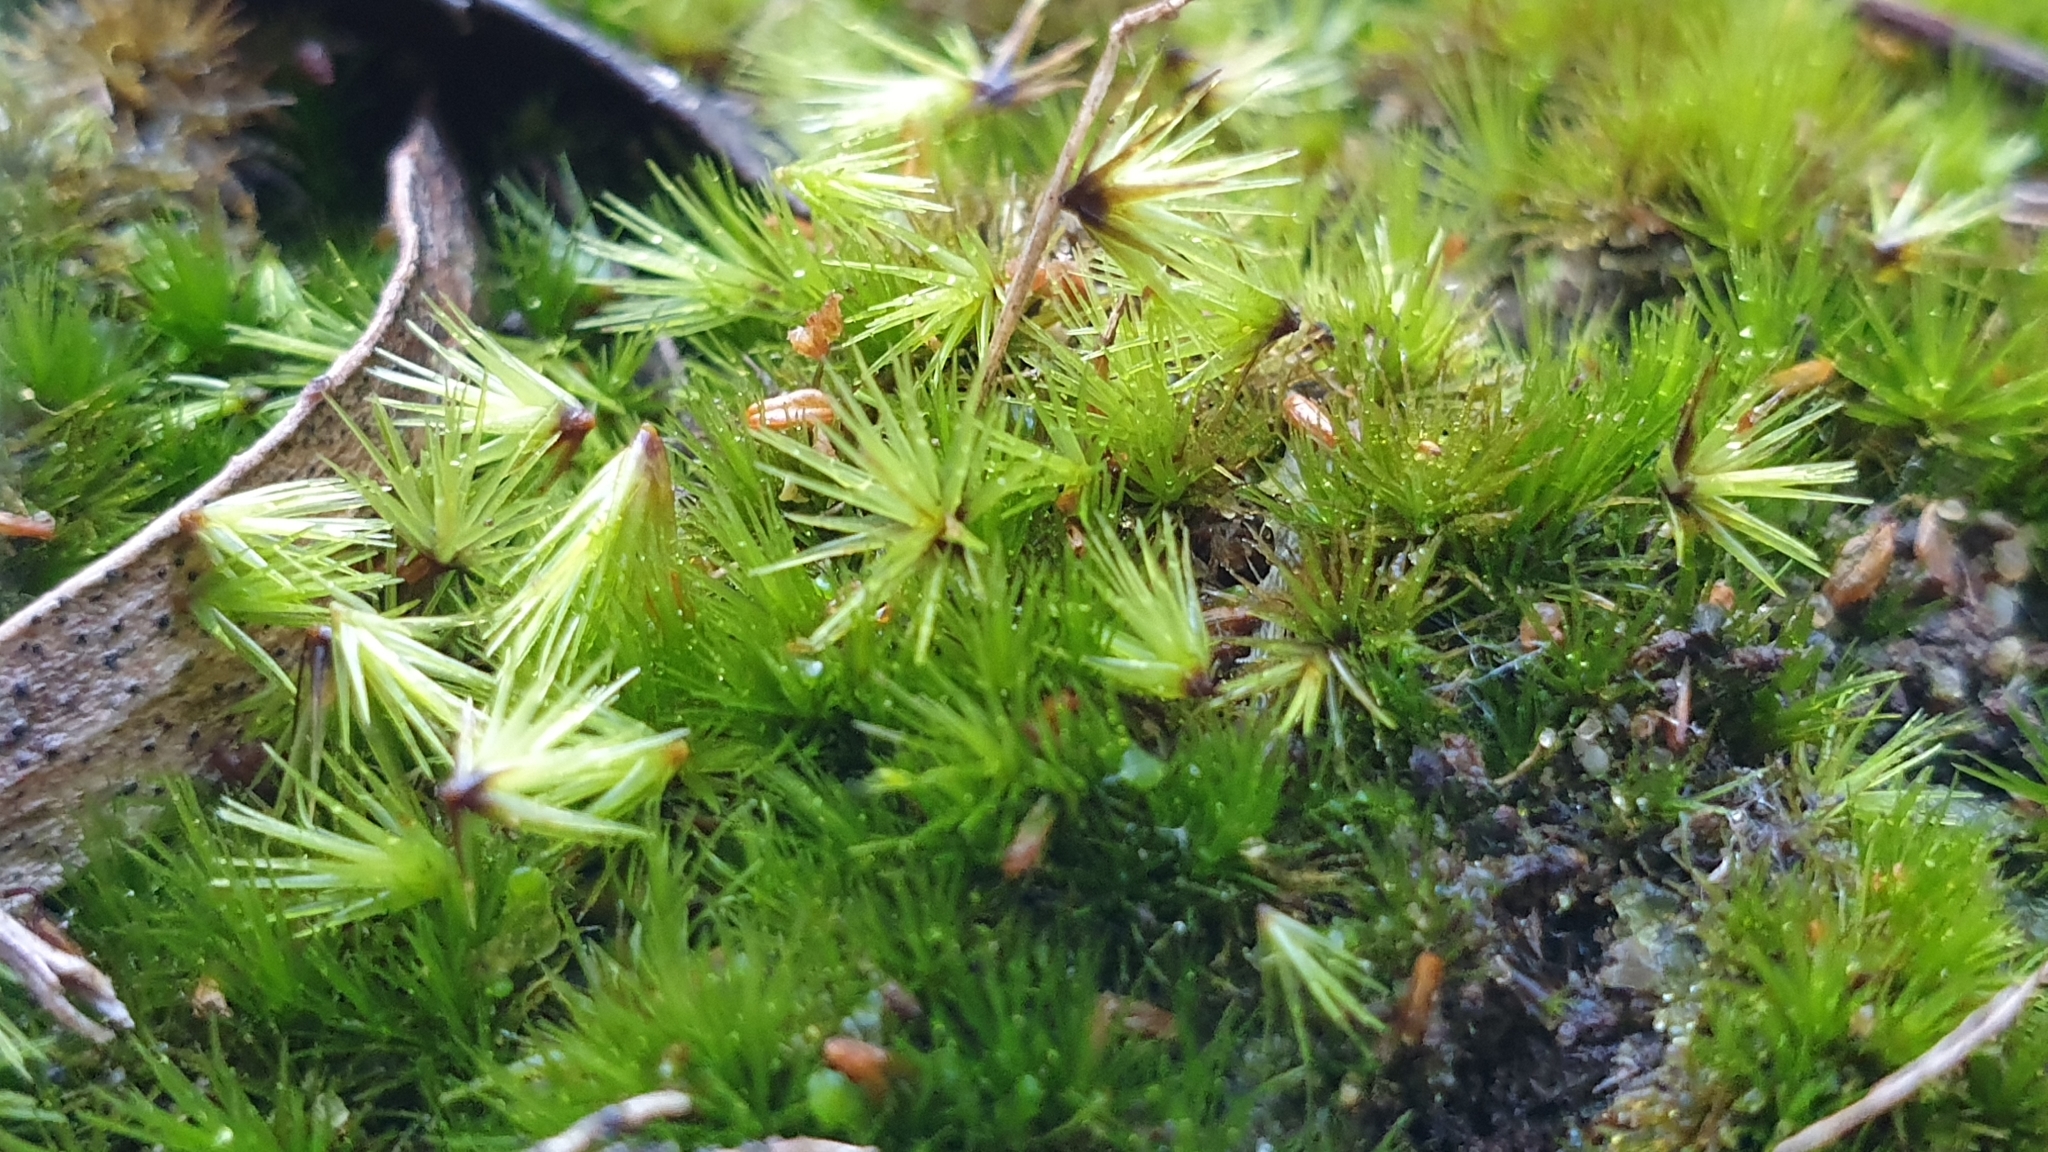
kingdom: Plantae
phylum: Bryophyta
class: Bryopsida
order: Dicranales
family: Leucobryaceae
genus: Campylopus
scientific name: Campylopus clavatus
